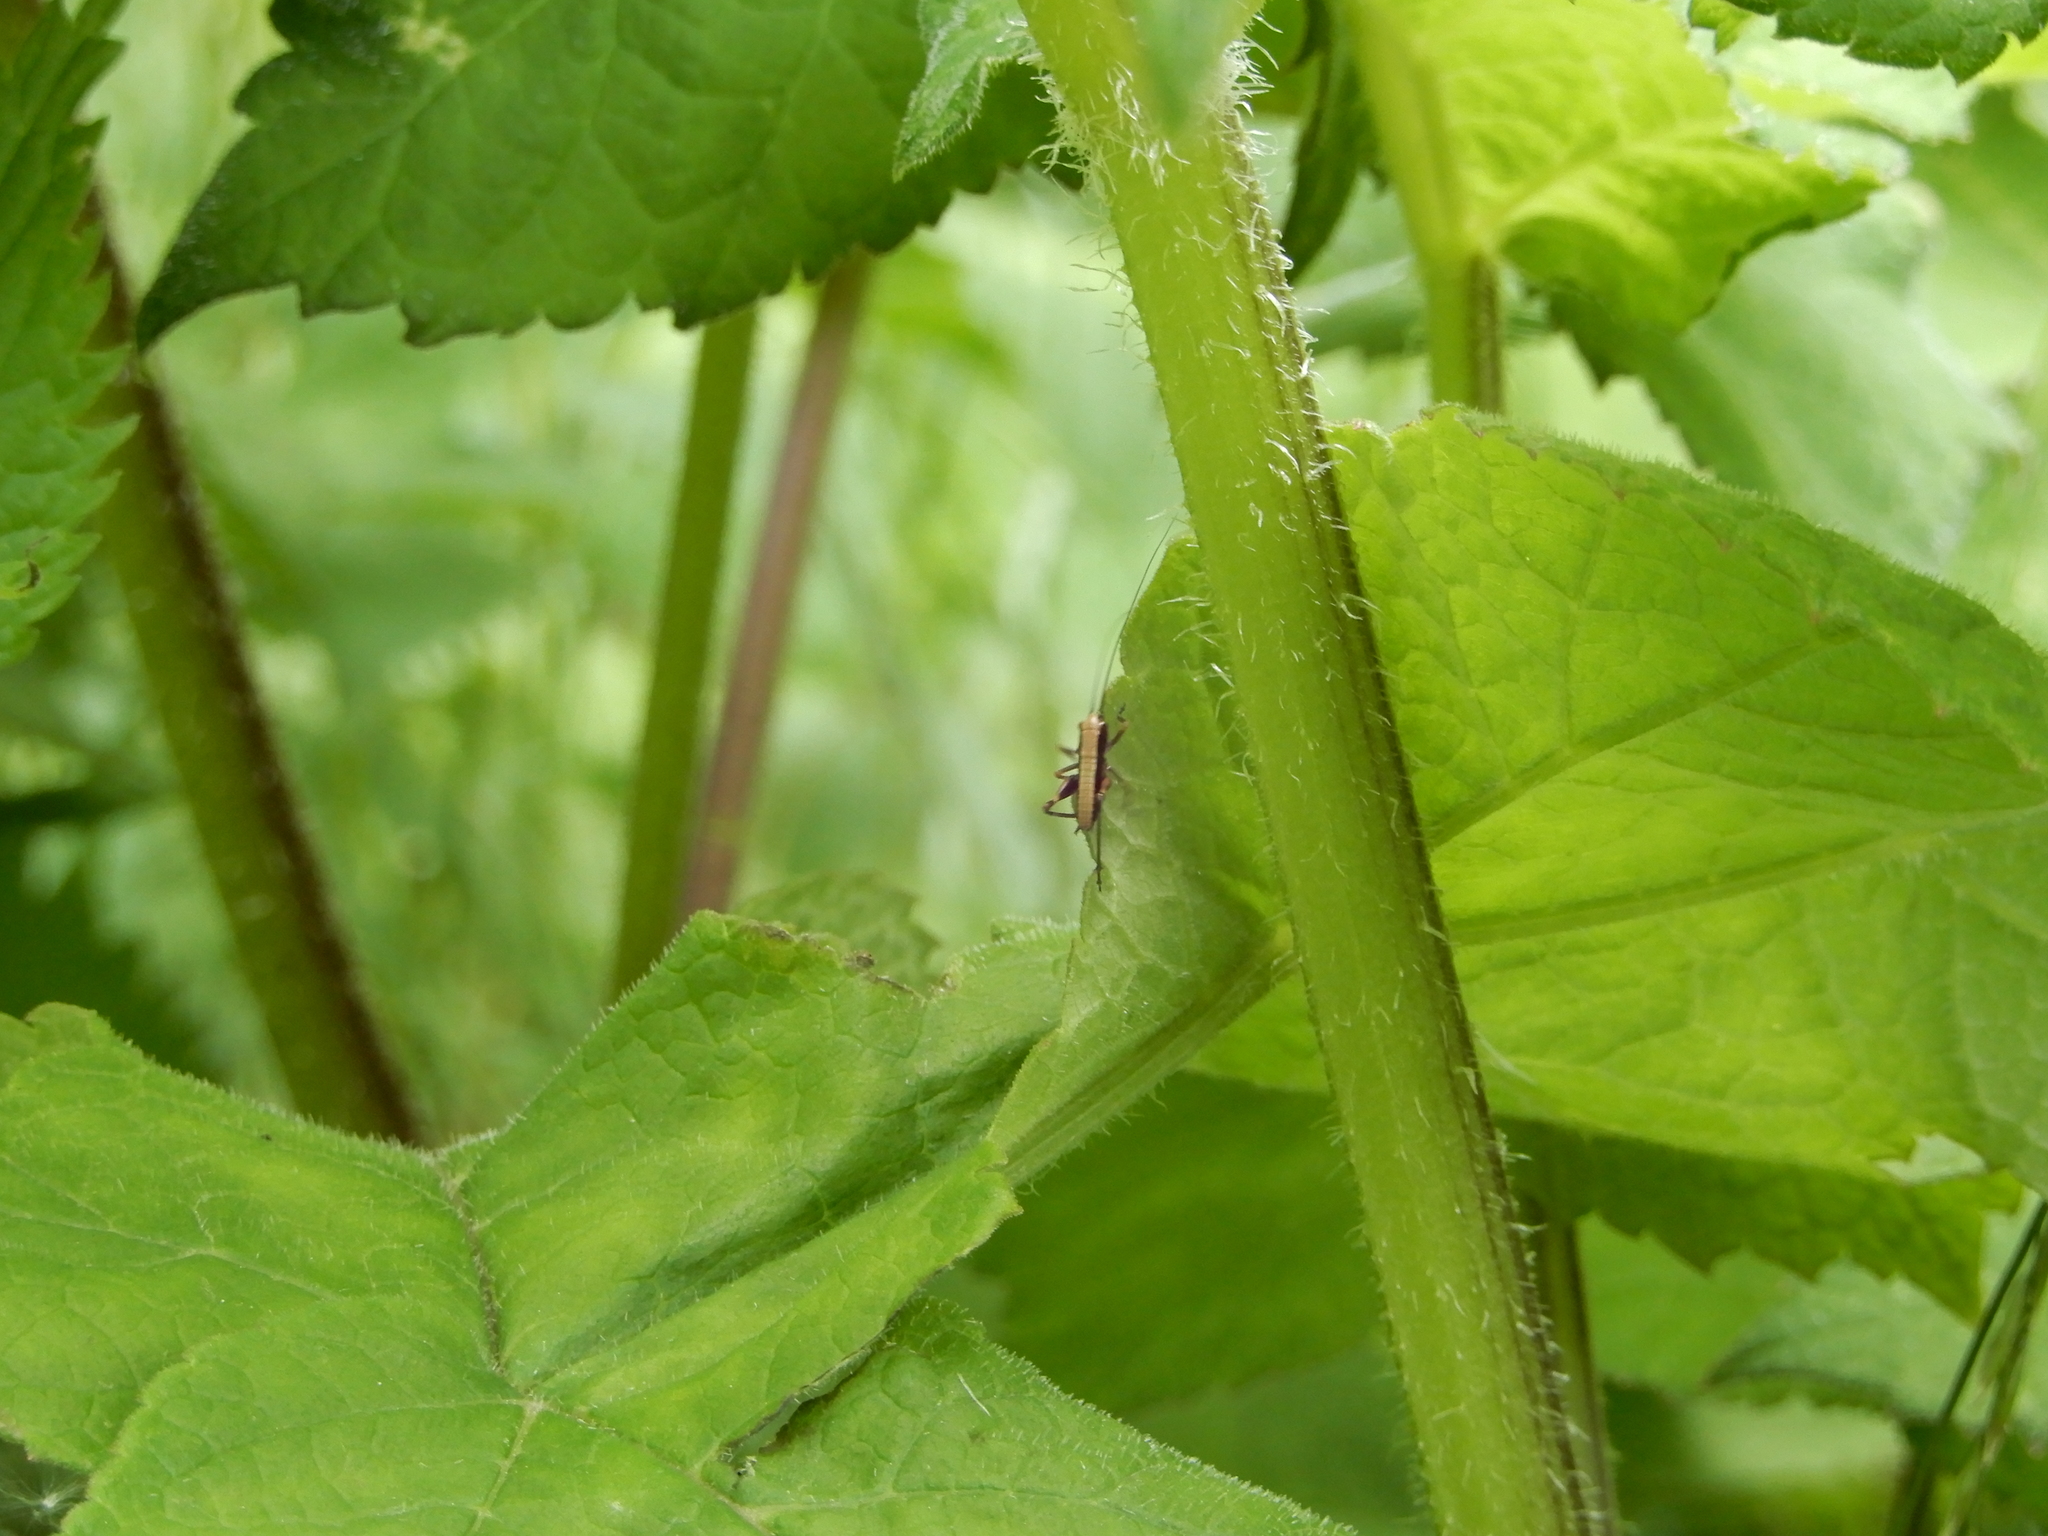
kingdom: Animalia
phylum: Arthropoda
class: Insecta
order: Orthoptera
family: Tettigoniidae
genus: Pholidoptera
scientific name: Pholidoptera griseoaptera
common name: Dark bush-cricket
